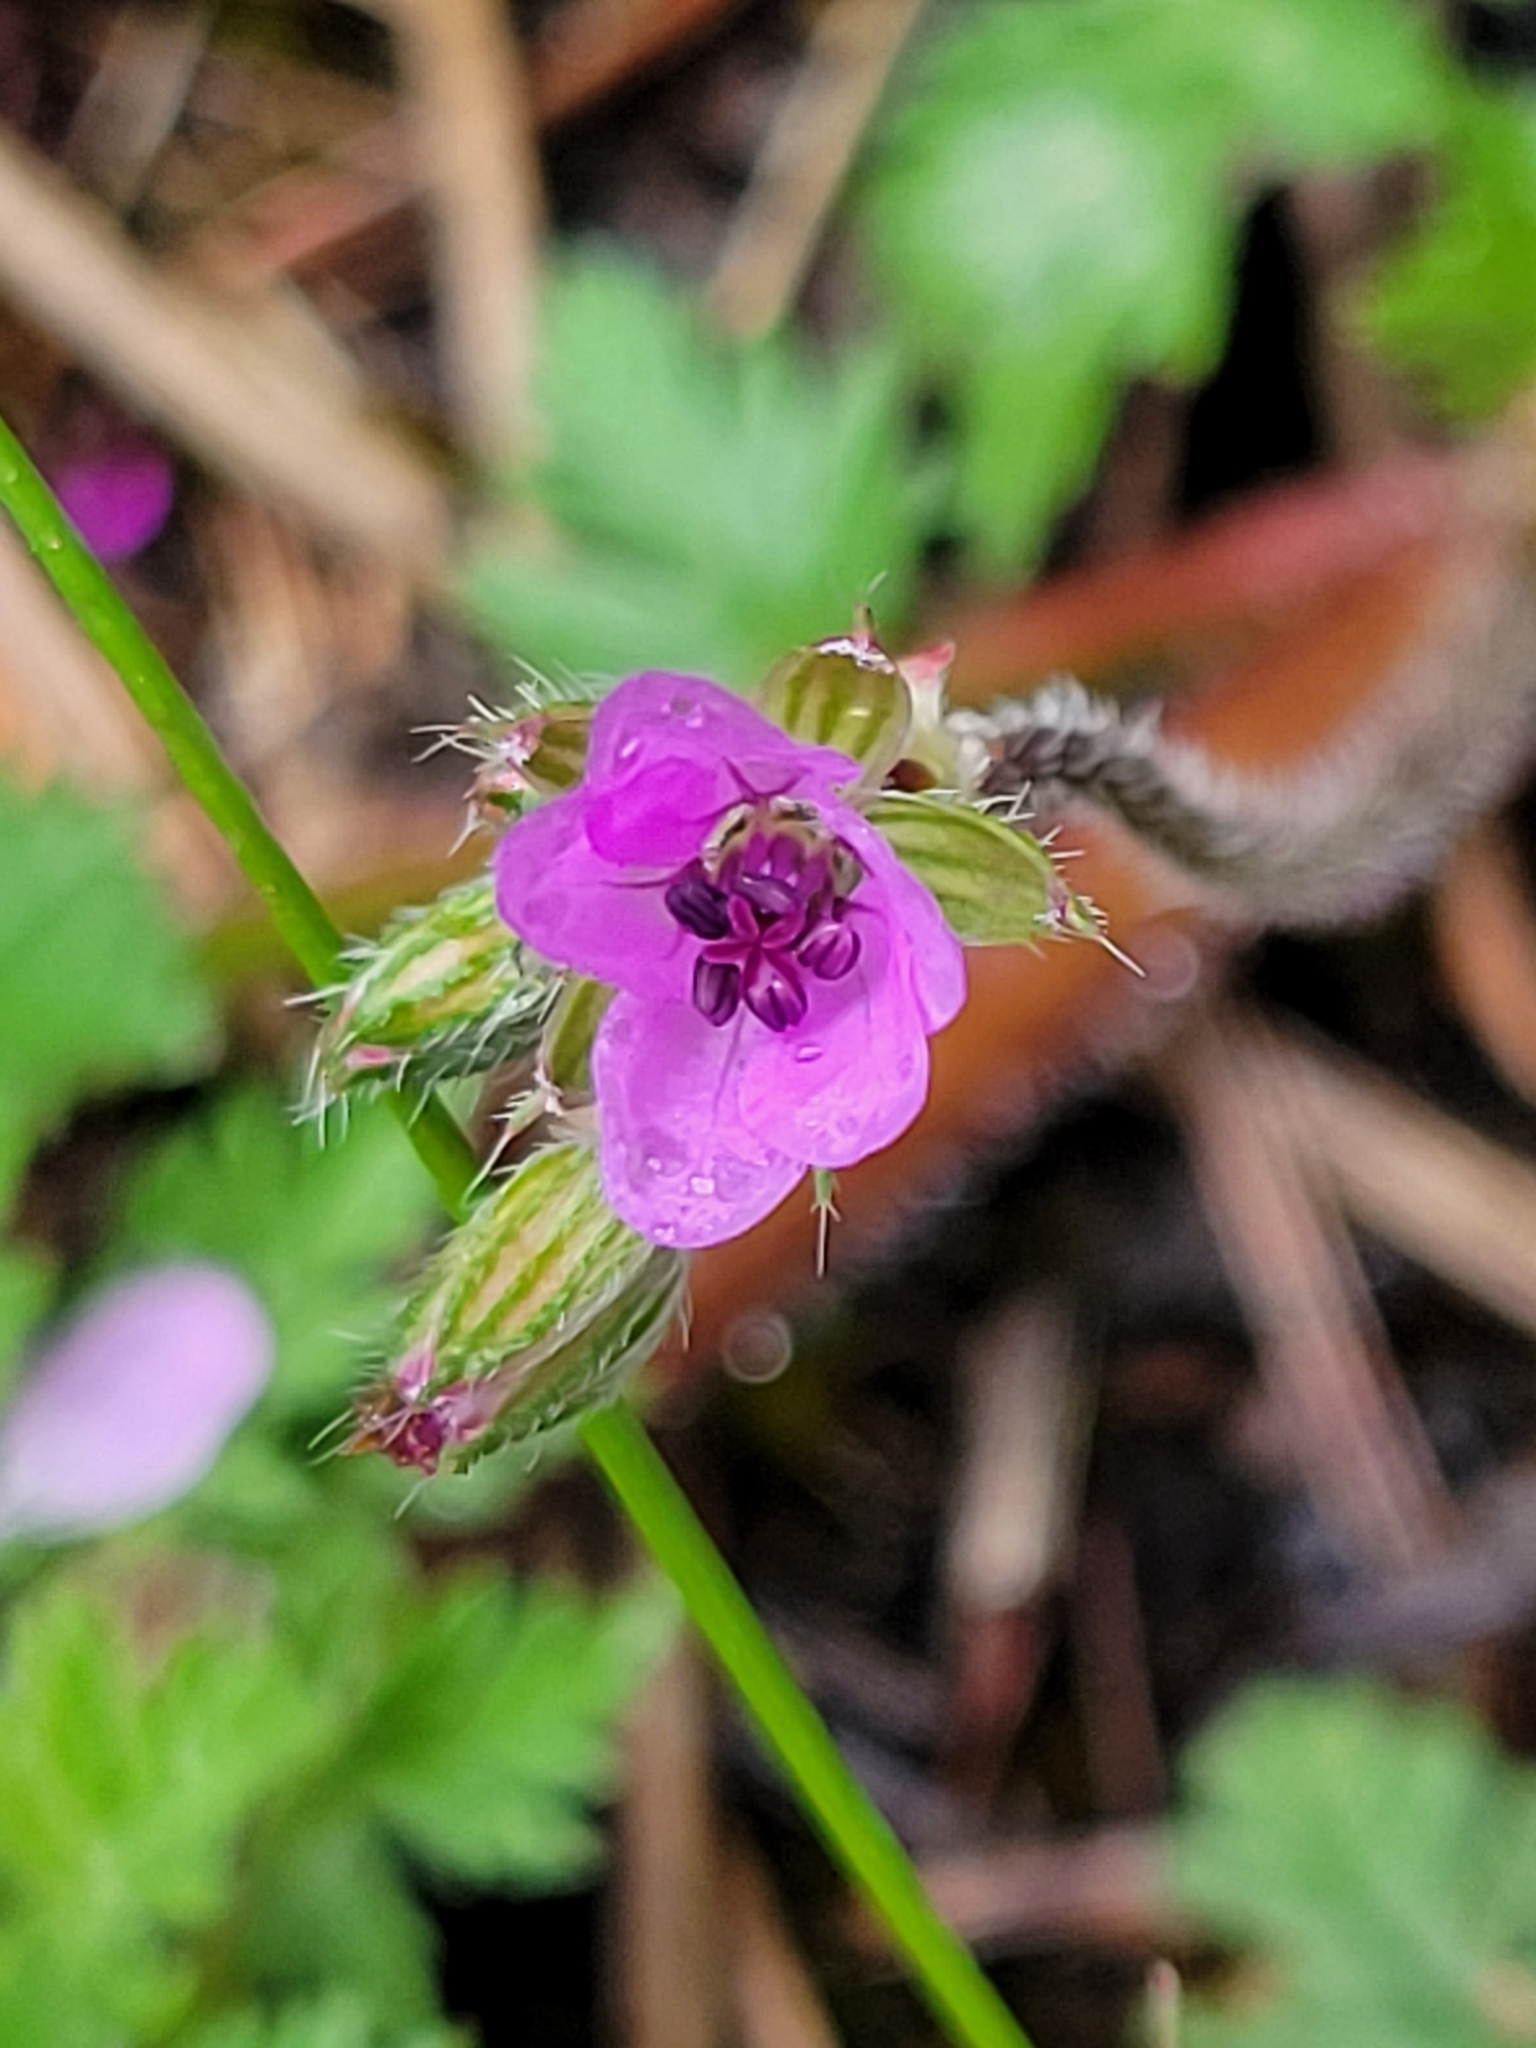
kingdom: Plantae
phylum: Tracheophyta
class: Magnoliopsida
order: Geraniales
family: Geraniaceae
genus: Erodium
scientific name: Erodium cicutarium
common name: Common stork's-bill
